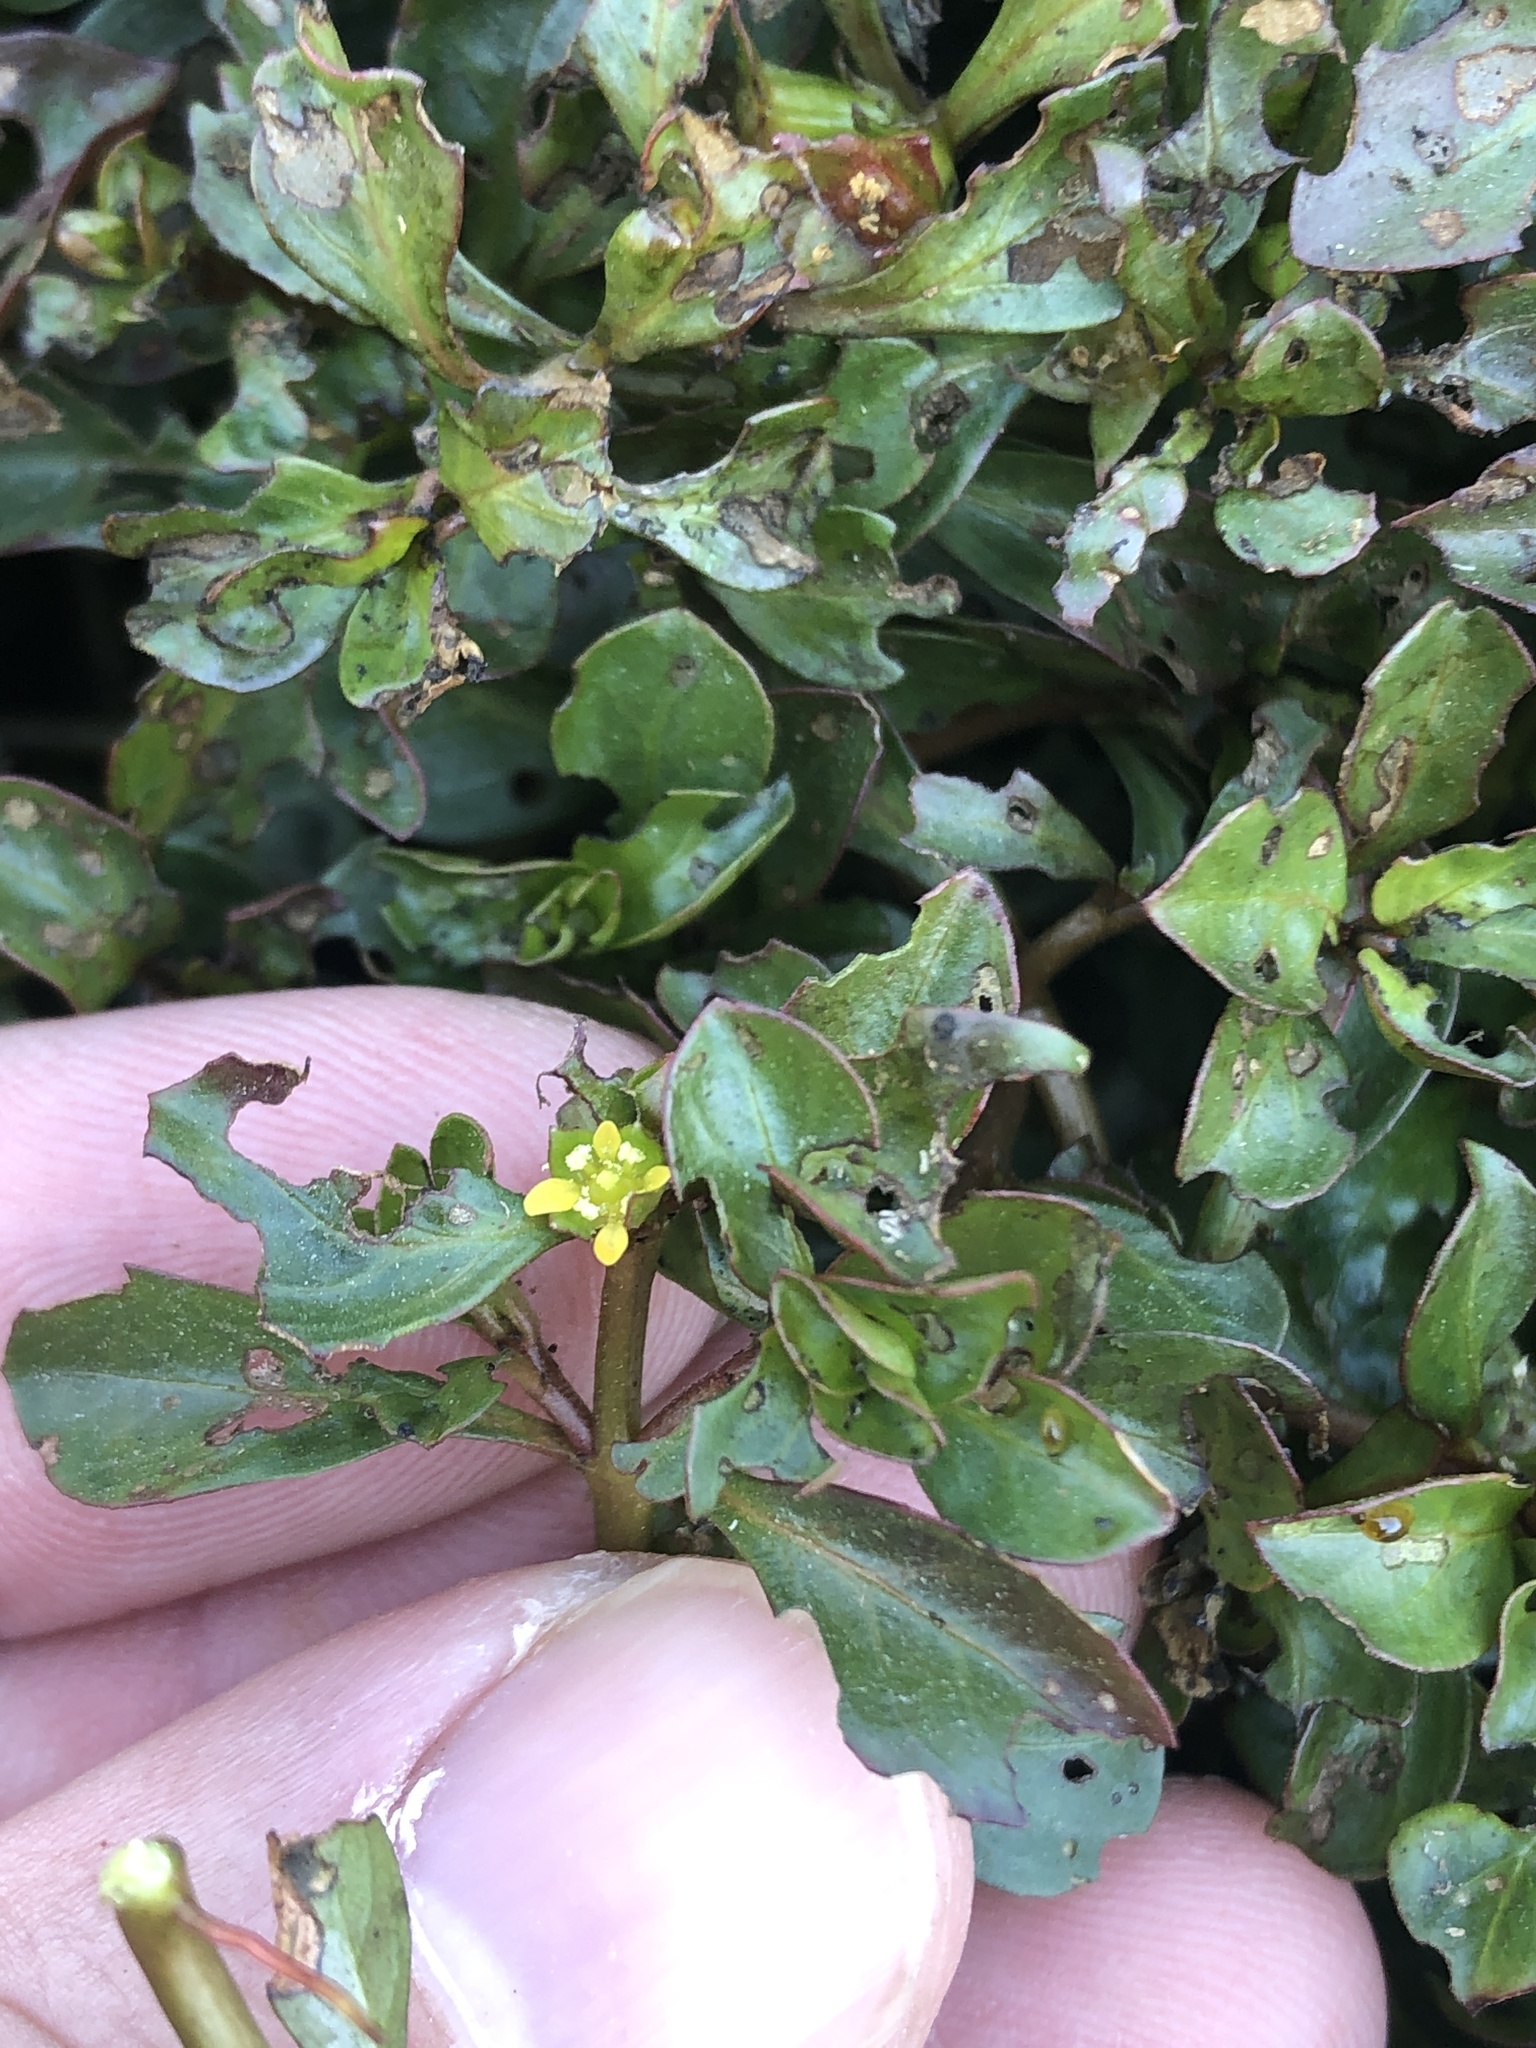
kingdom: Plantae
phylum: Tracheophyta
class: Magnoliopsida
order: Myrtales
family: Onagraceae
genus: Ludwigia
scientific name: Ludwigia repens
